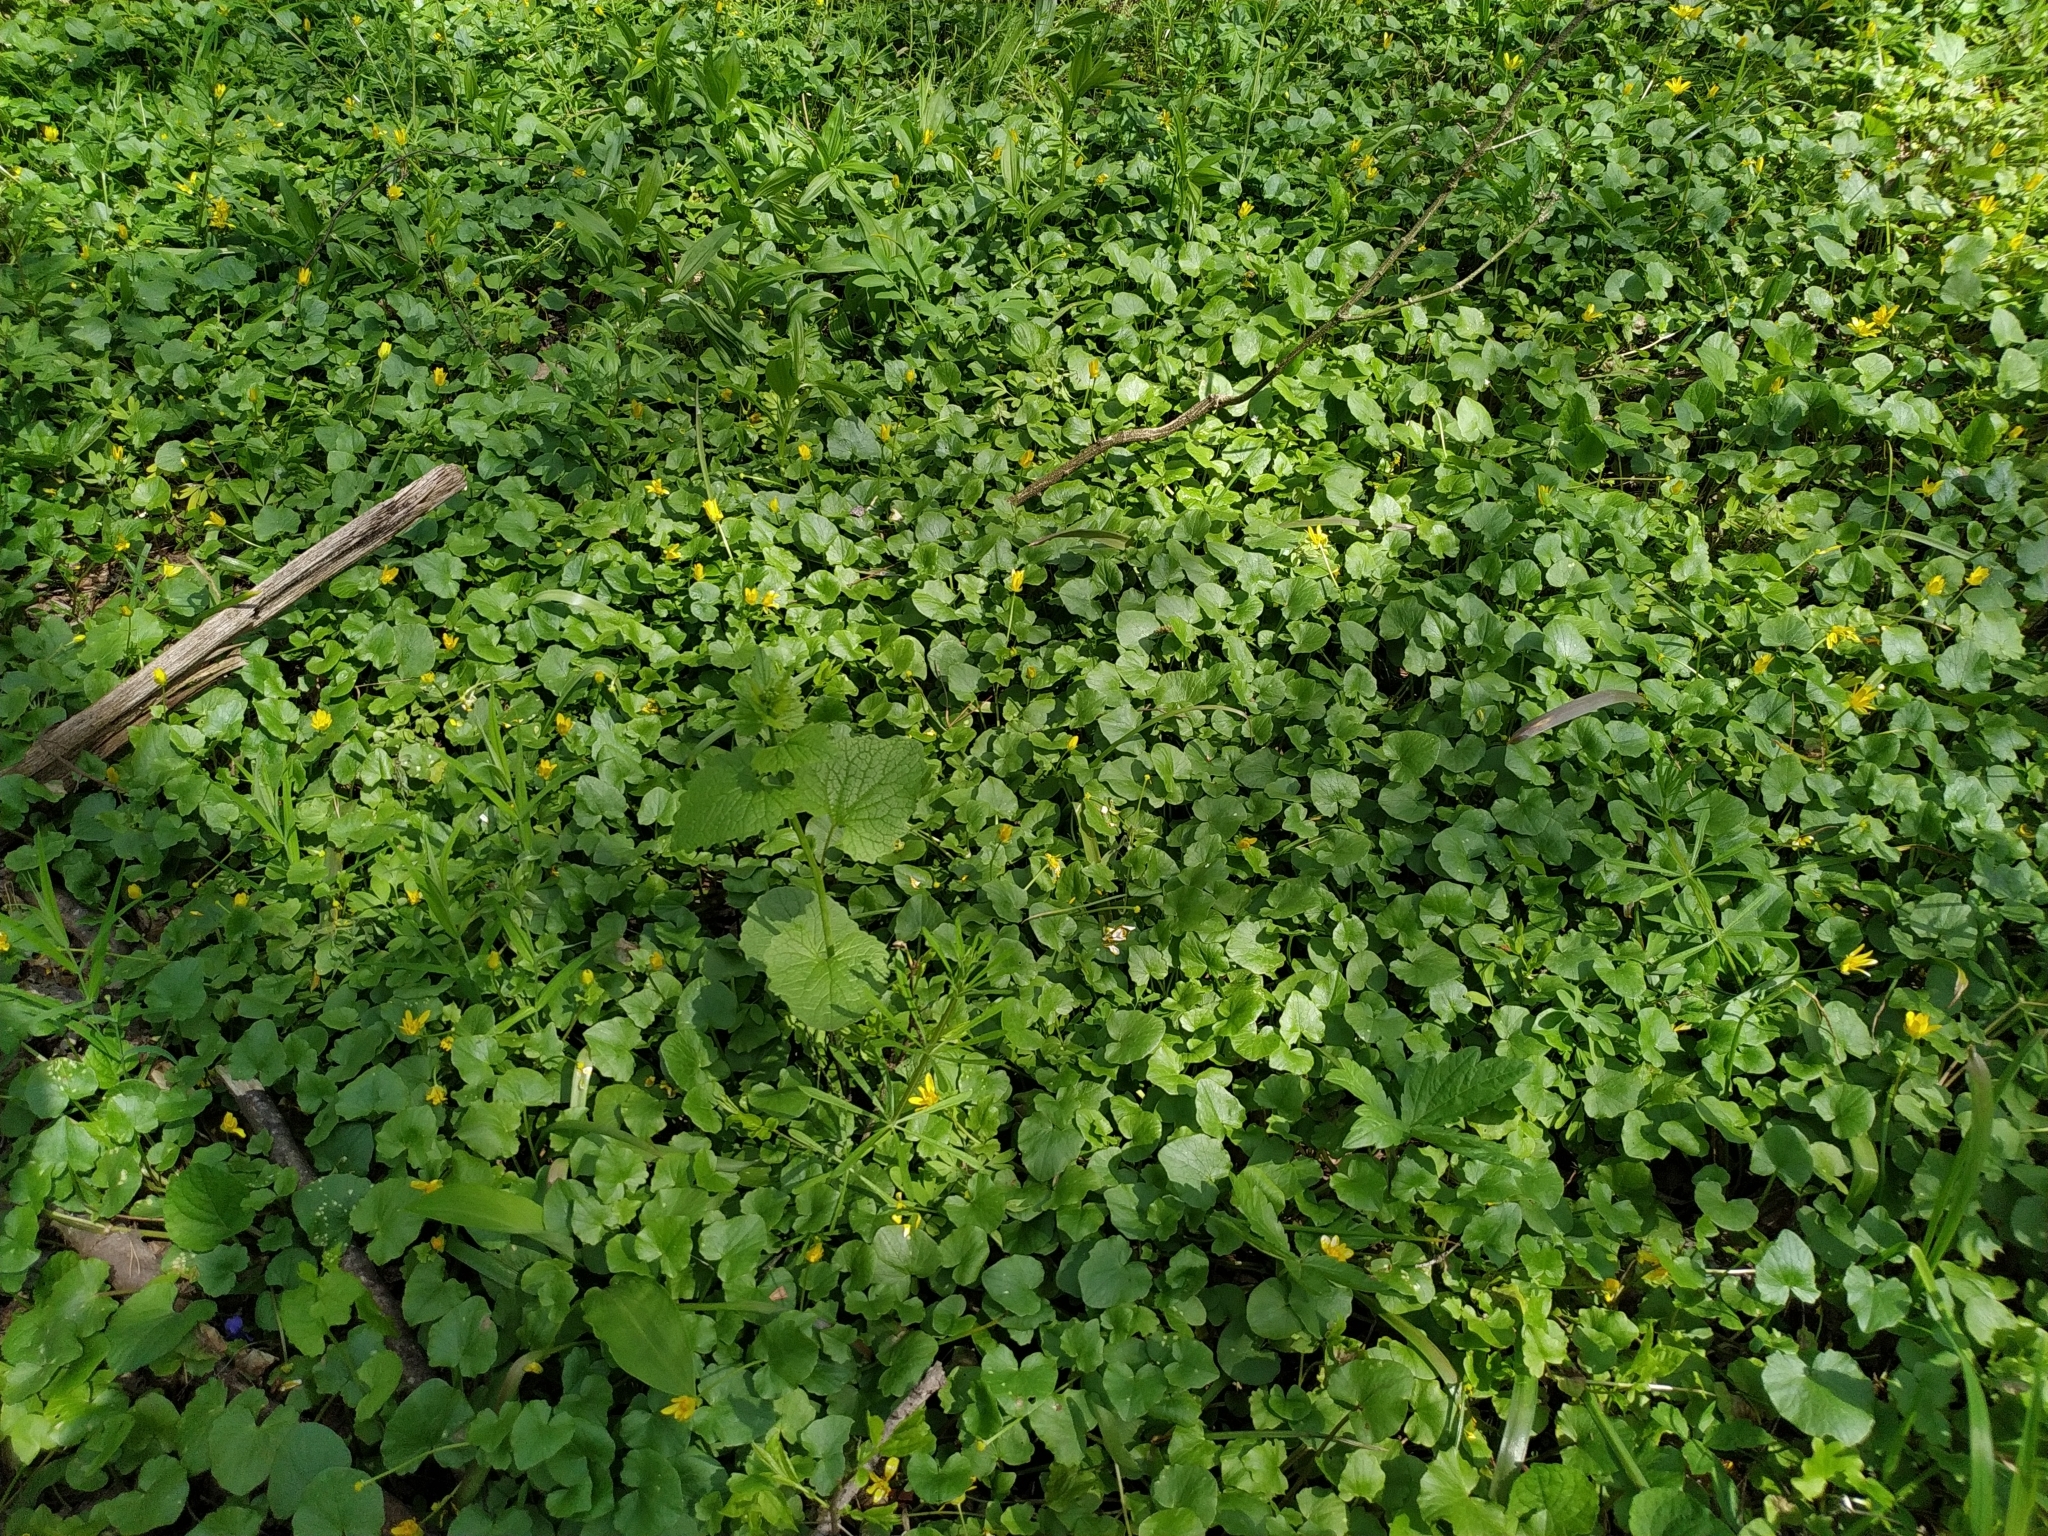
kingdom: Plantae
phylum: Tracheophyta
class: Magnoliopsida
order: Ranunculales
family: Ranunculaceae
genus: Ficaria
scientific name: Ficaria verna
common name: Lesser celandine
